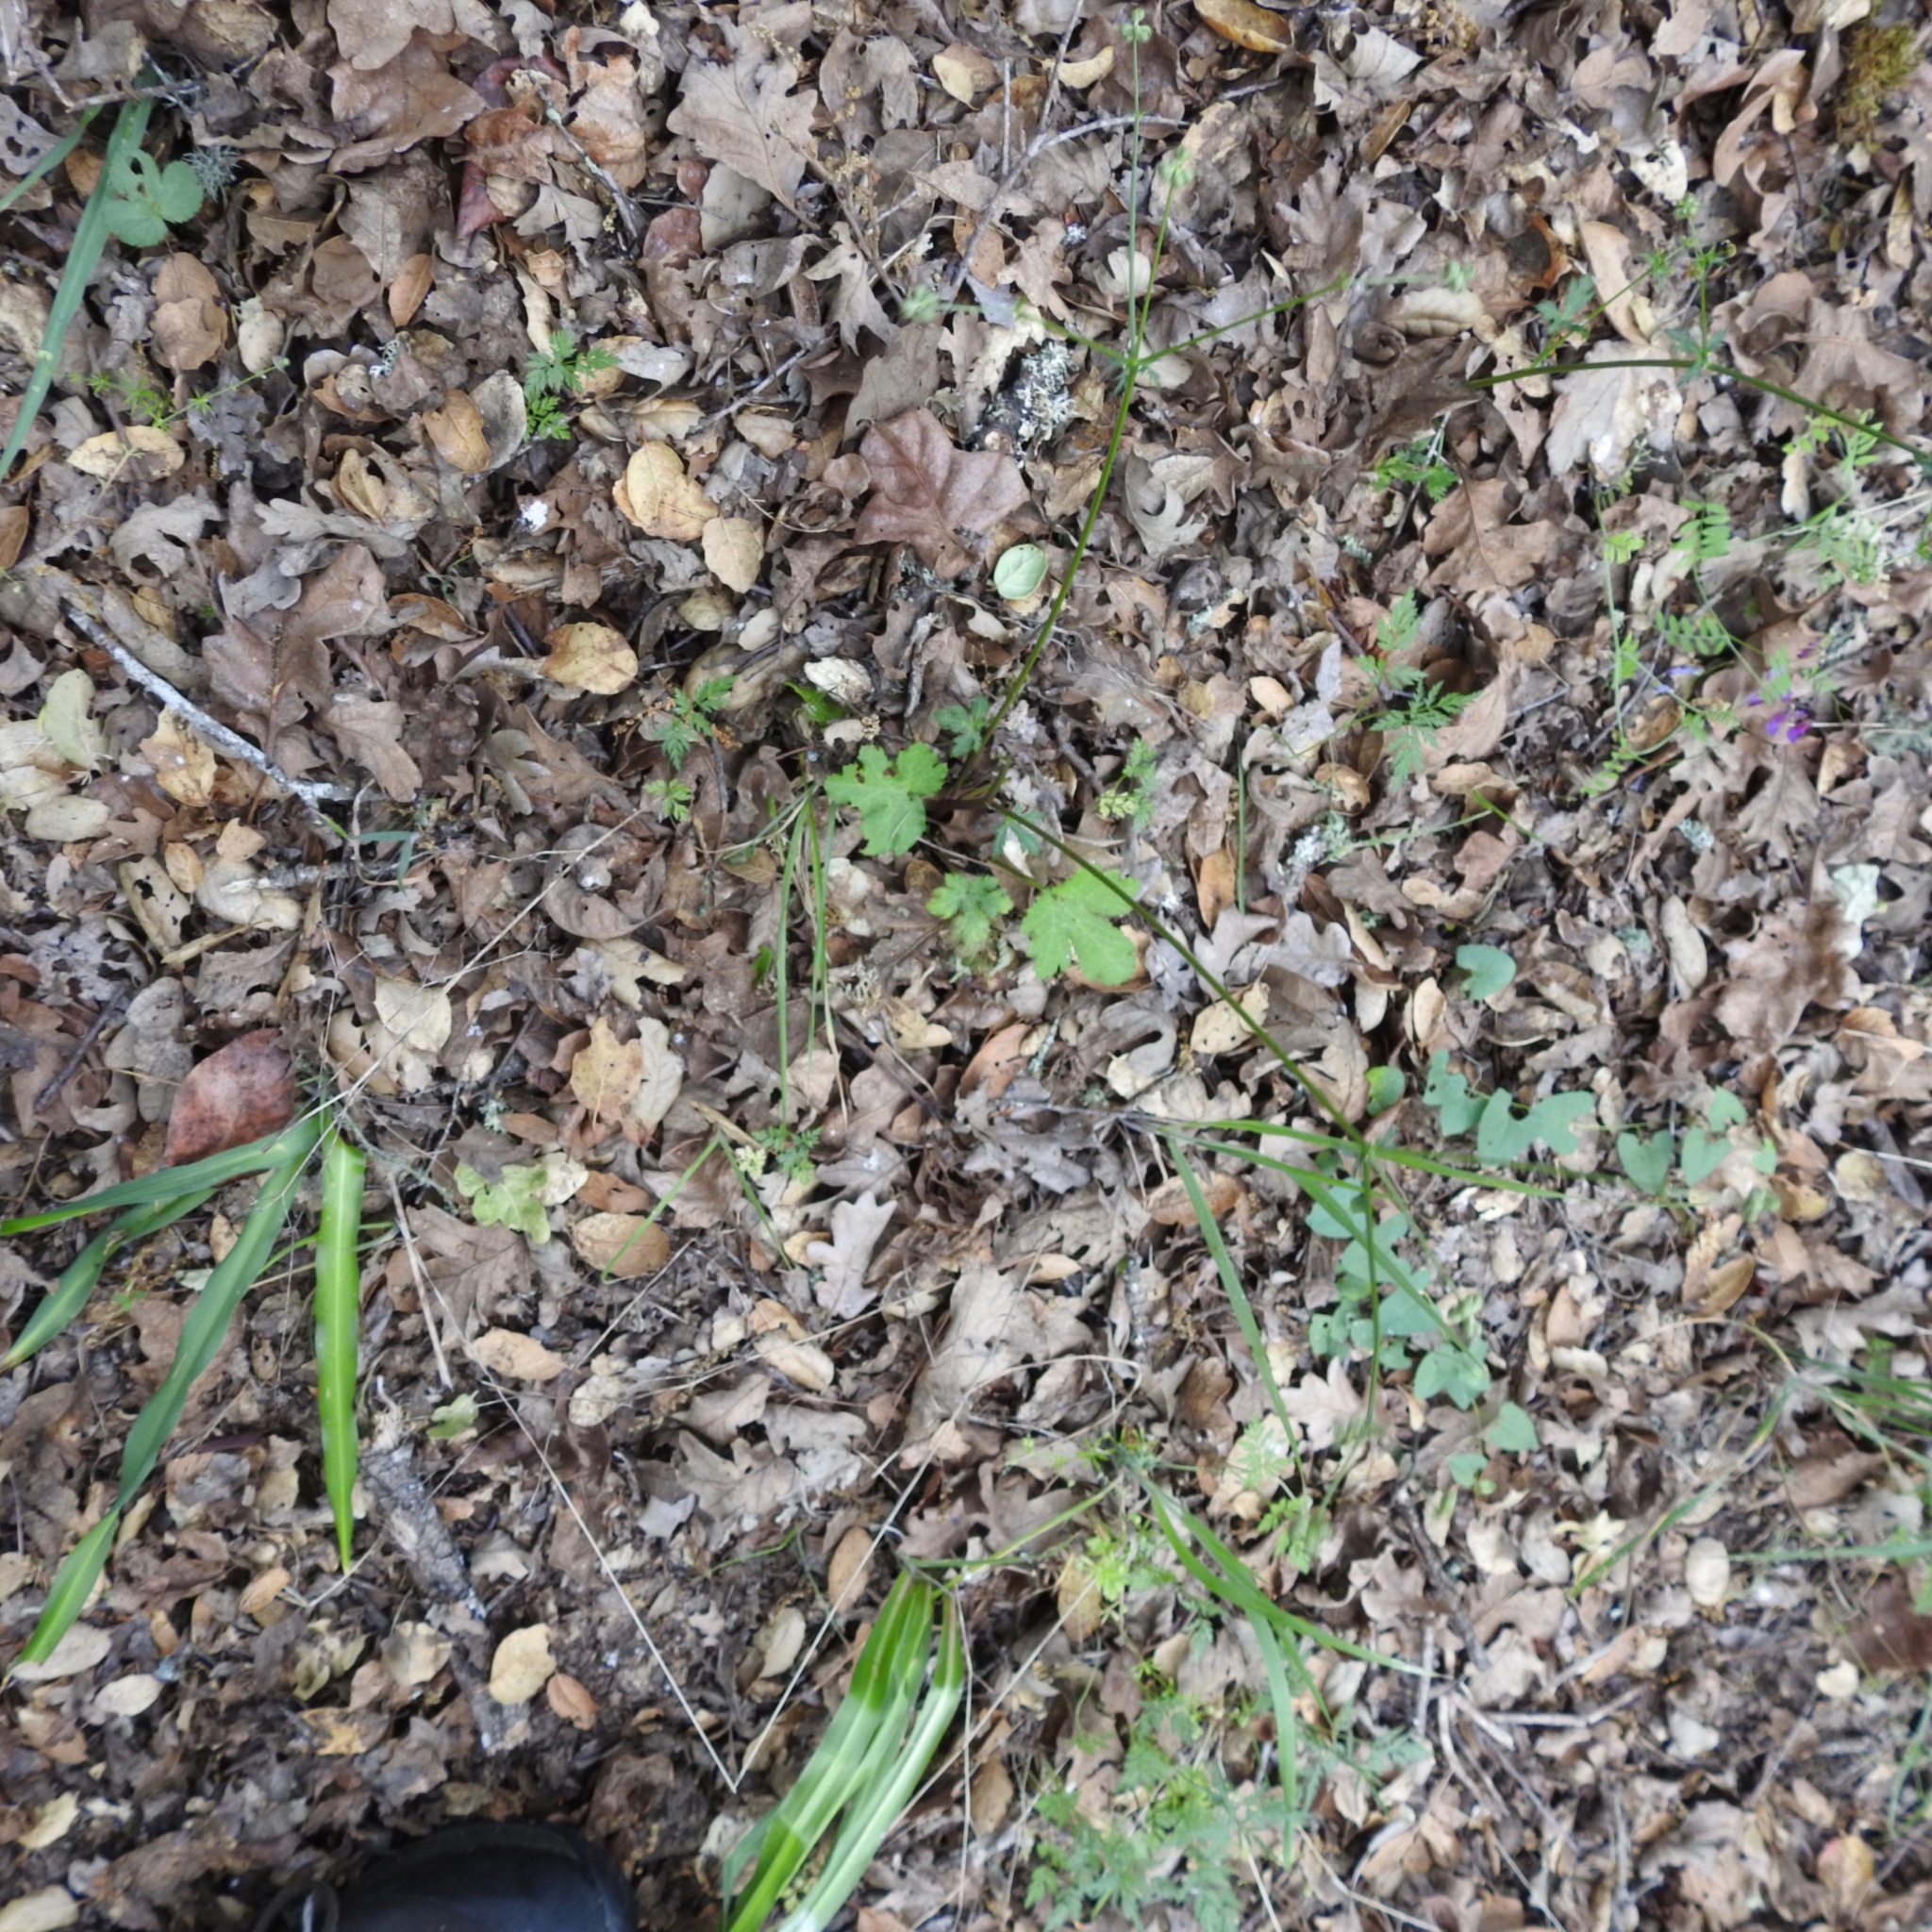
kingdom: Plantae
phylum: Tracheophyta
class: Magnoliopsida
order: Apiales
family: Apiaceae
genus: Sanicula
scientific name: Sanicula crassicaulis
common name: Western snakeroot
